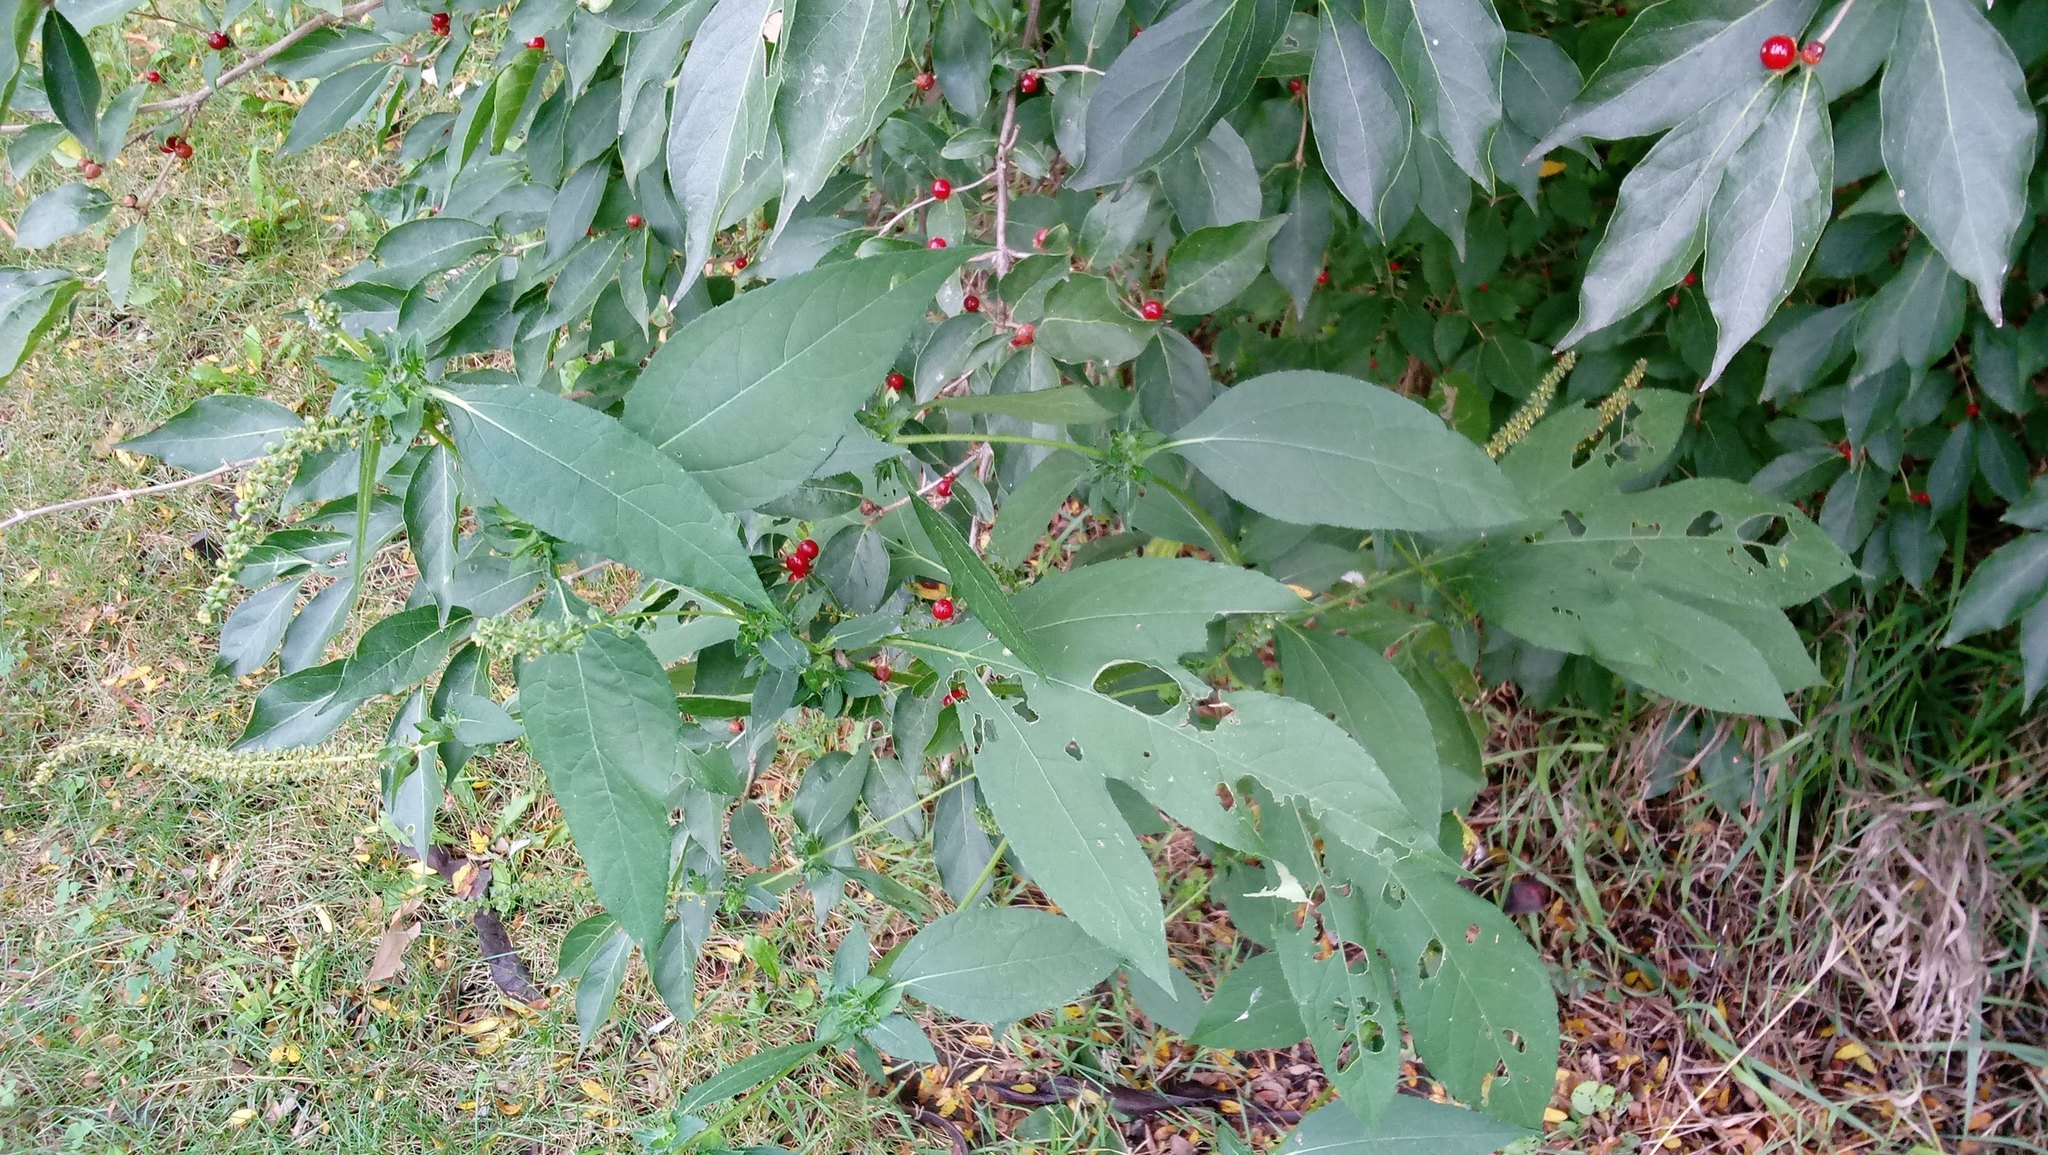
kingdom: Plantae
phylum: Tracheophyta
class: Magnoliopsida
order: Asterales
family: Asteraceae
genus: Ambrosia
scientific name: Ambrosia trifida
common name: Giant ragweed
